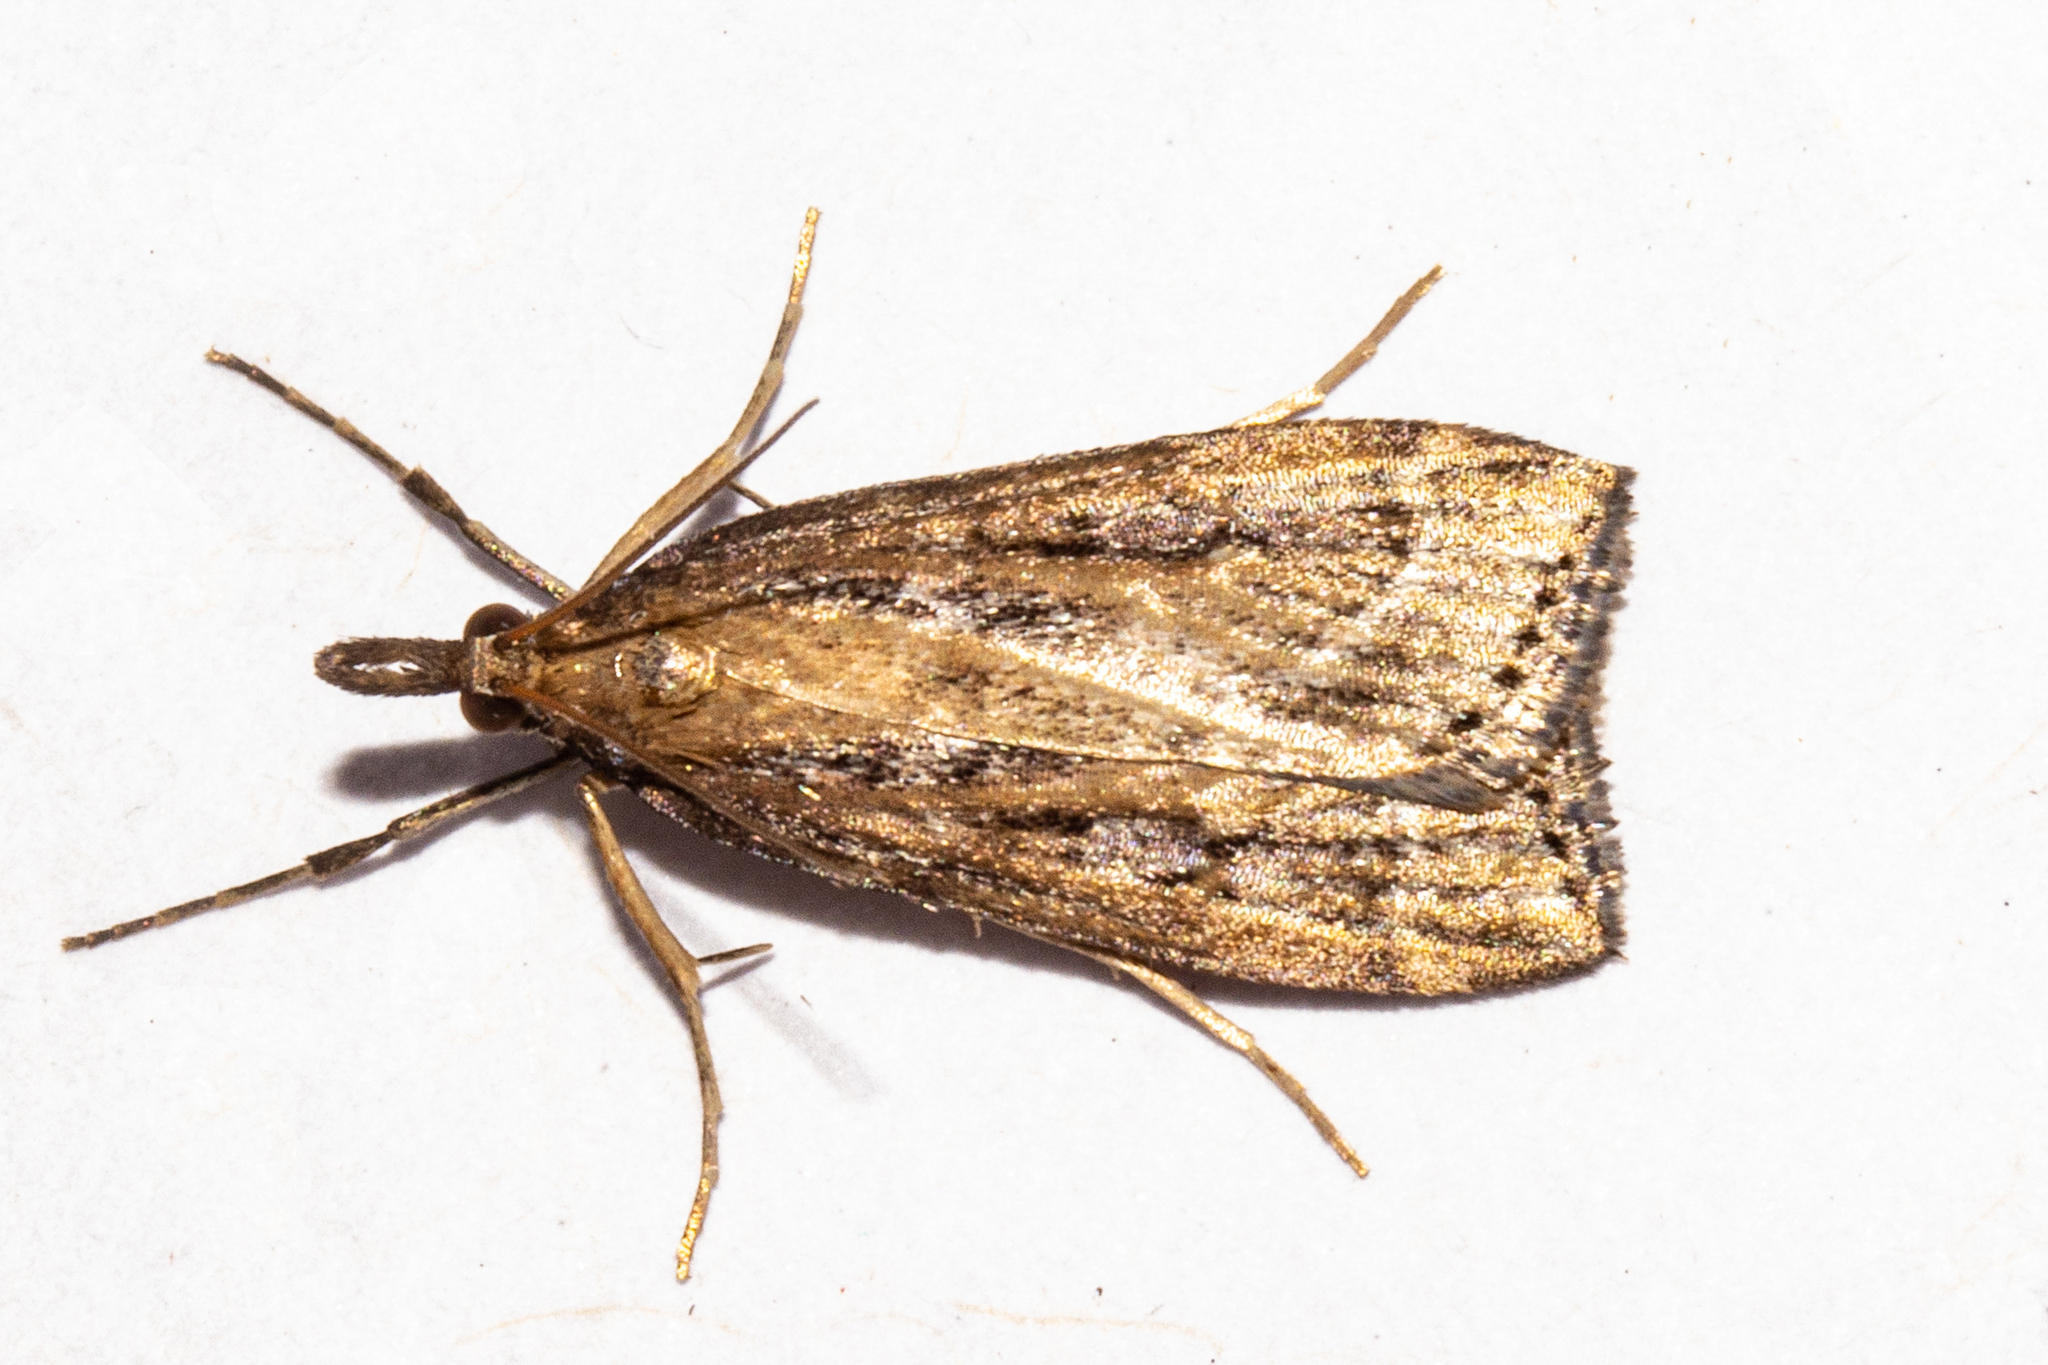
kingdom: Animalia
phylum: Arthropoda
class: Insecta
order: Lepidoptera
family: Crambidae
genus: Eudonia
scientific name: Eudonia octophora
